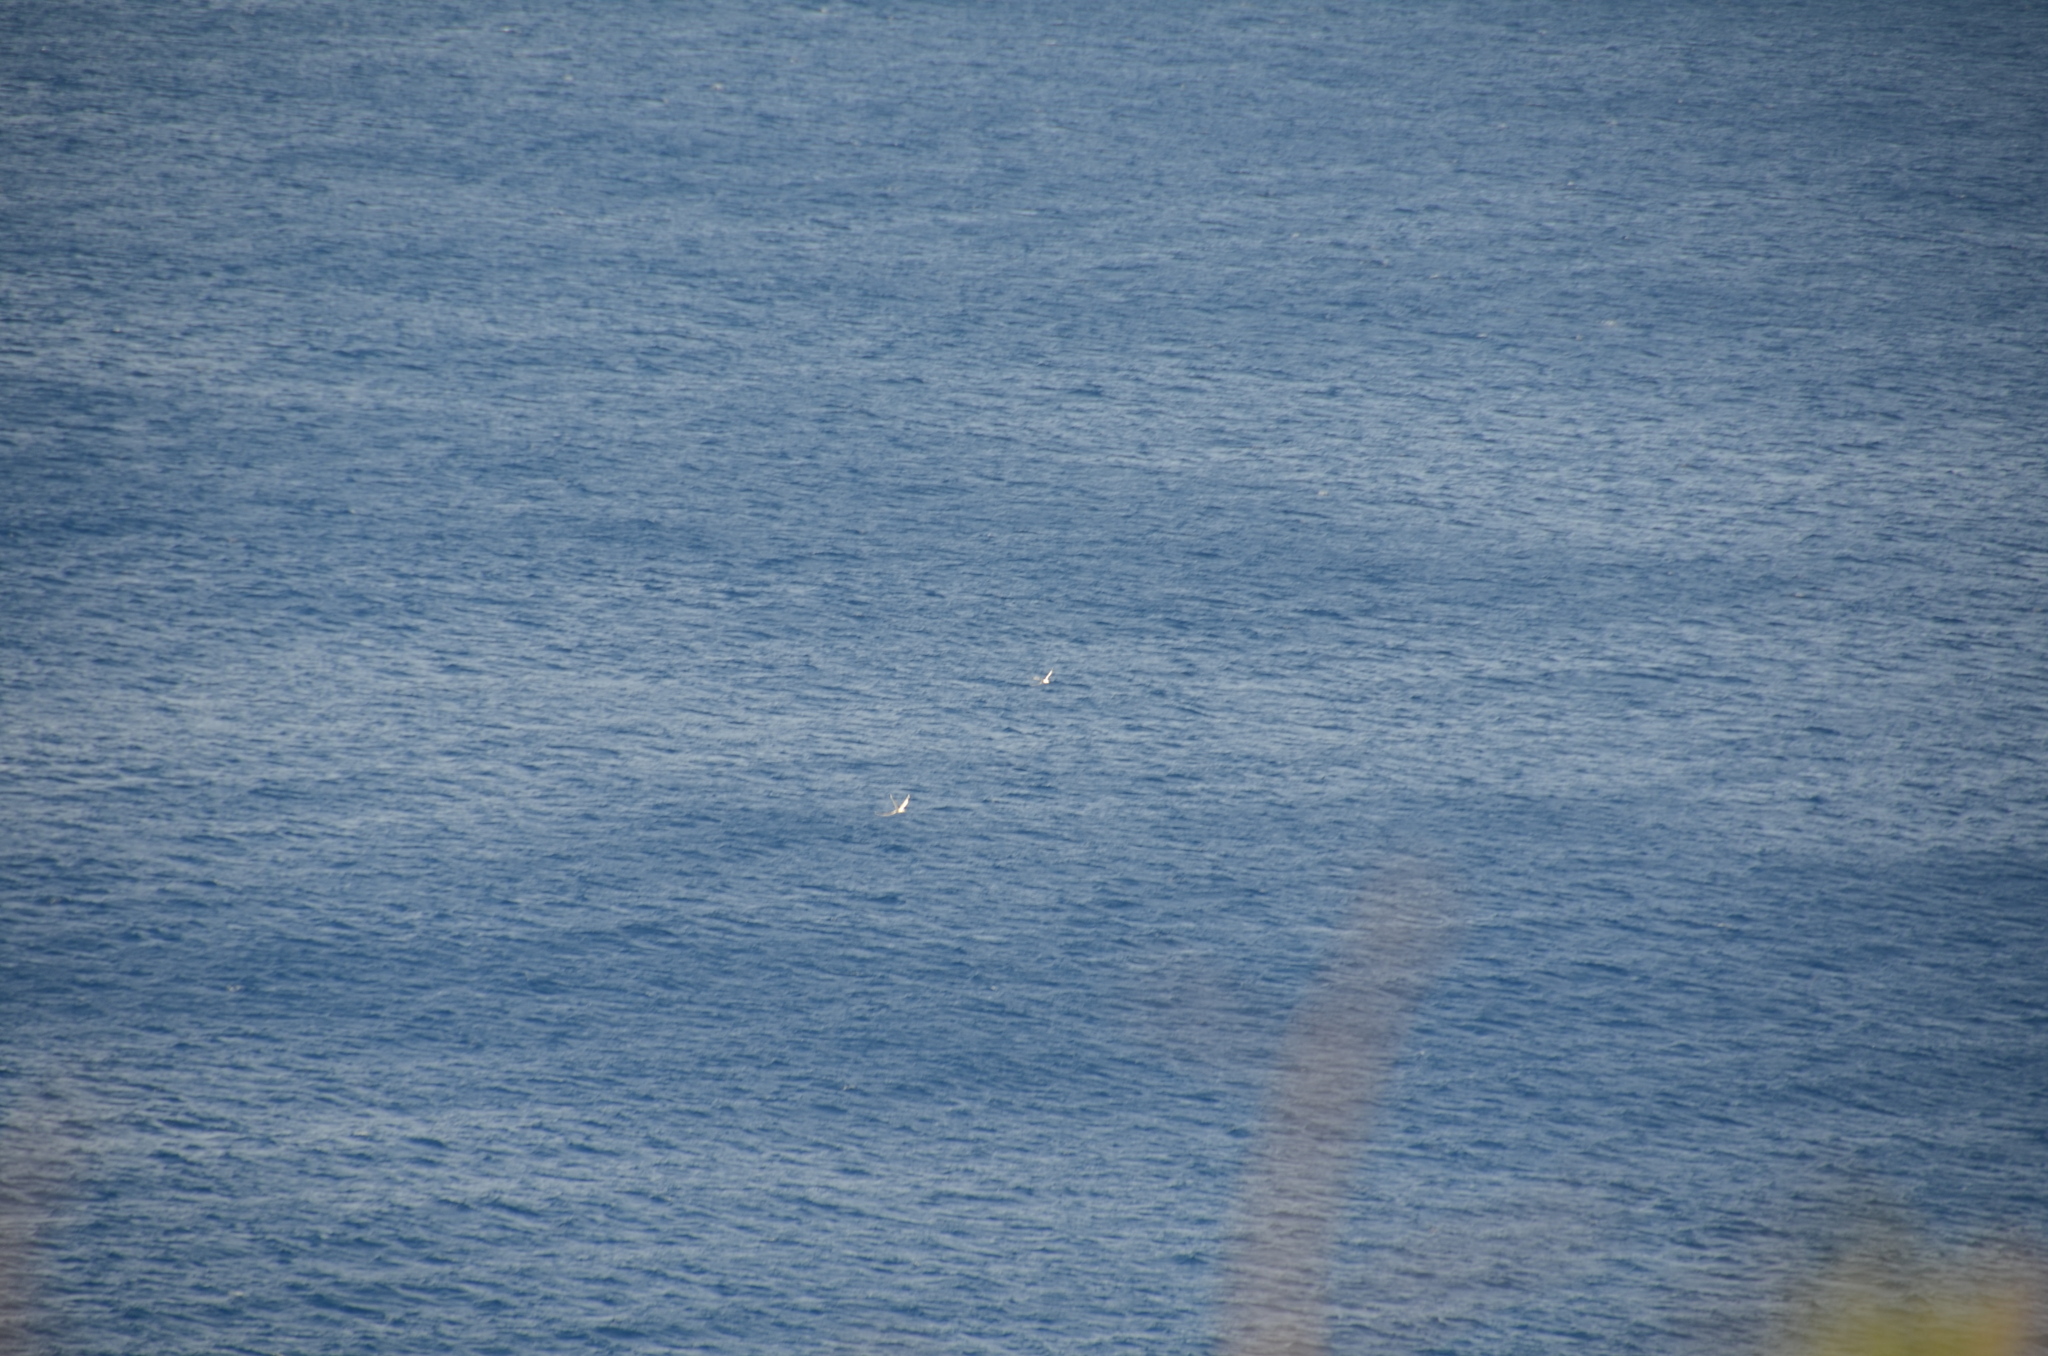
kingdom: Animalia
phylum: Chordata
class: Aves
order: Phaethontiformes
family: Phaethontidae
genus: Phaethon
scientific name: Phaethon lepturus
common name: White-tailed tropicbird
